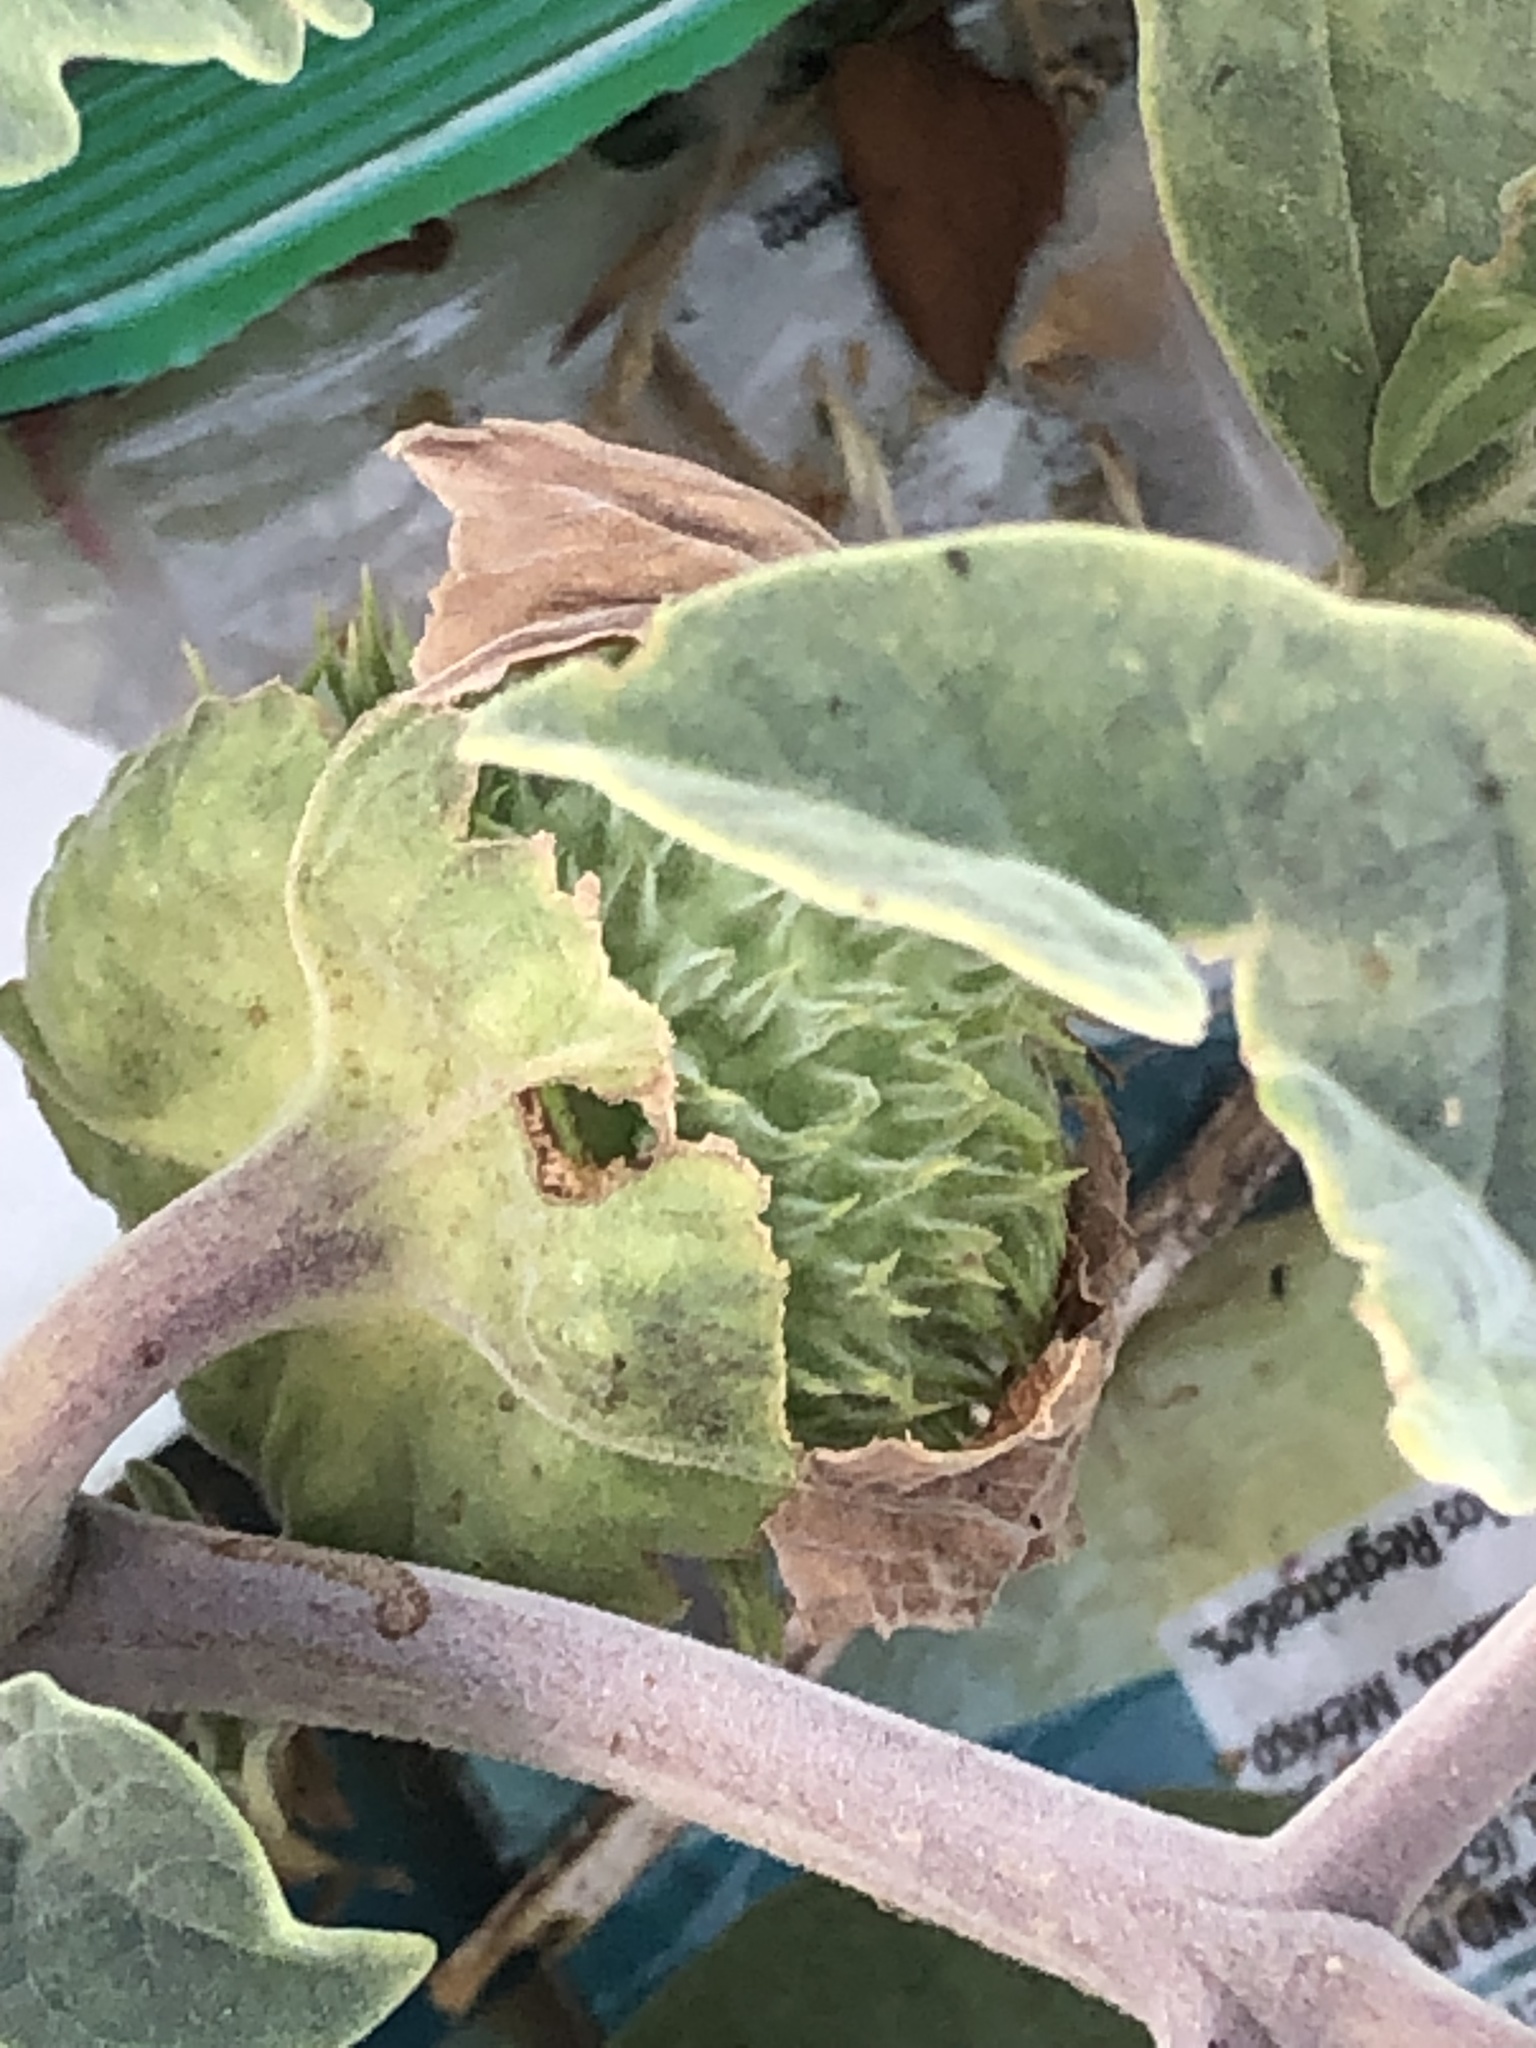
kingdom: Plantae
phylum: Tracheophyta
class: Magnoliopsida
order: Solanales
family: Solanaceae
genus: Datura
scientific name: Datura wrightii
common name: Sacred thorn-apple
